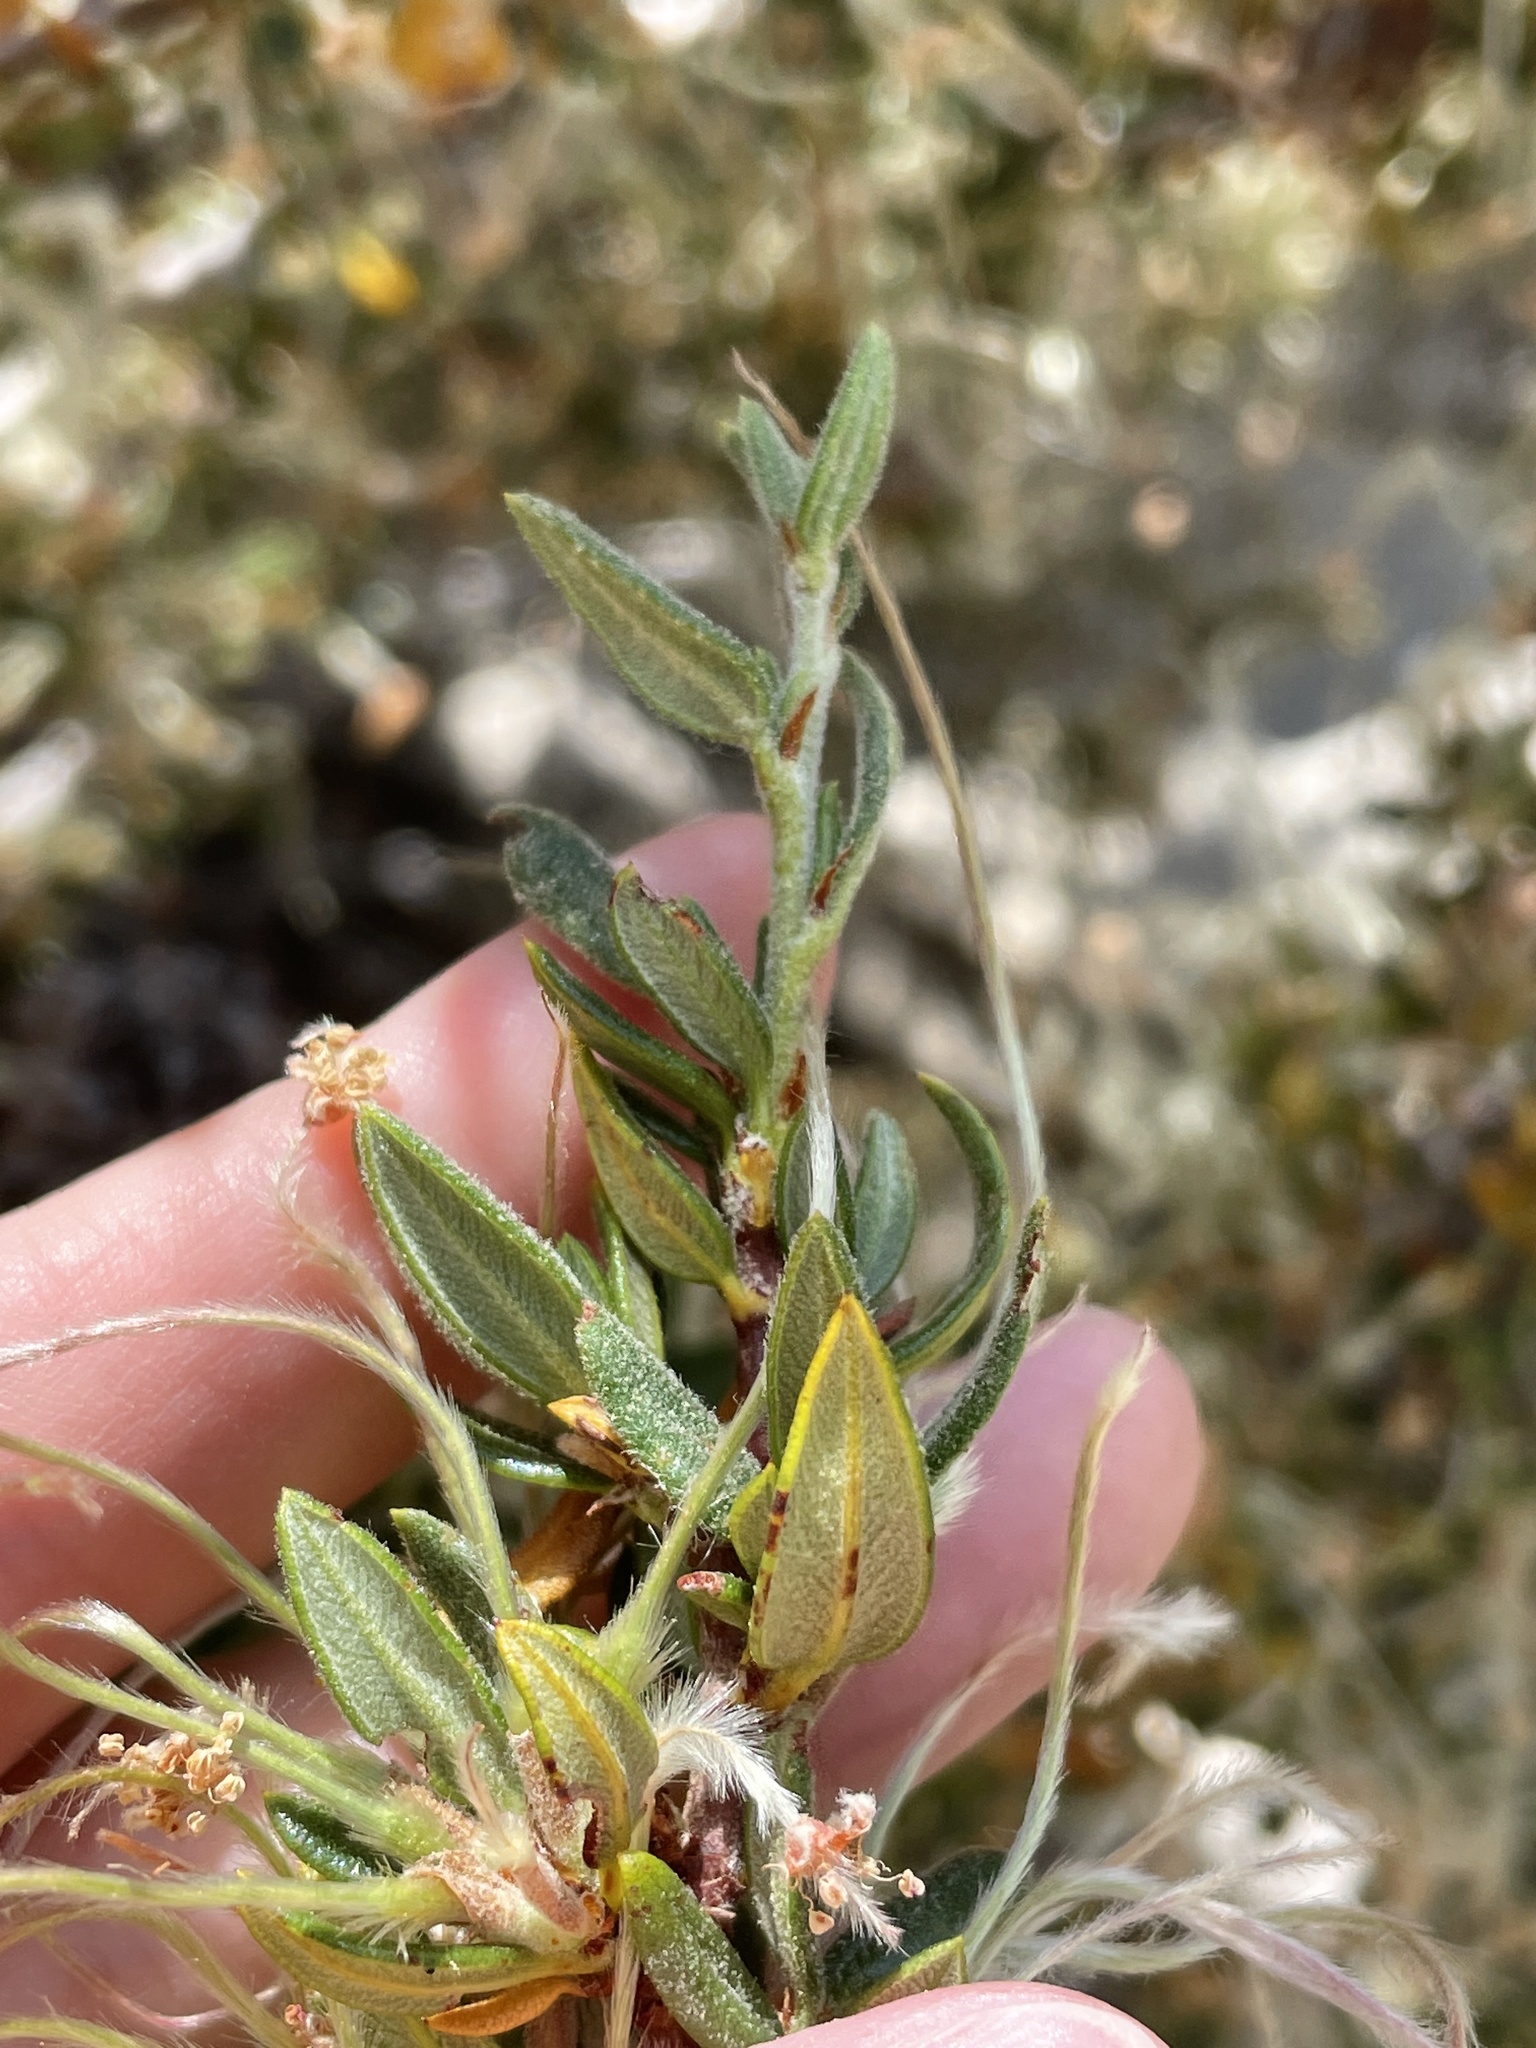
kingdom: Plantae
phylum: Tracheophyta
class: Magnoliopsida
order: Rosales
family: Rosaceae
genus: Cercocarpus
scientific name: Cercocarpus ledifolius
